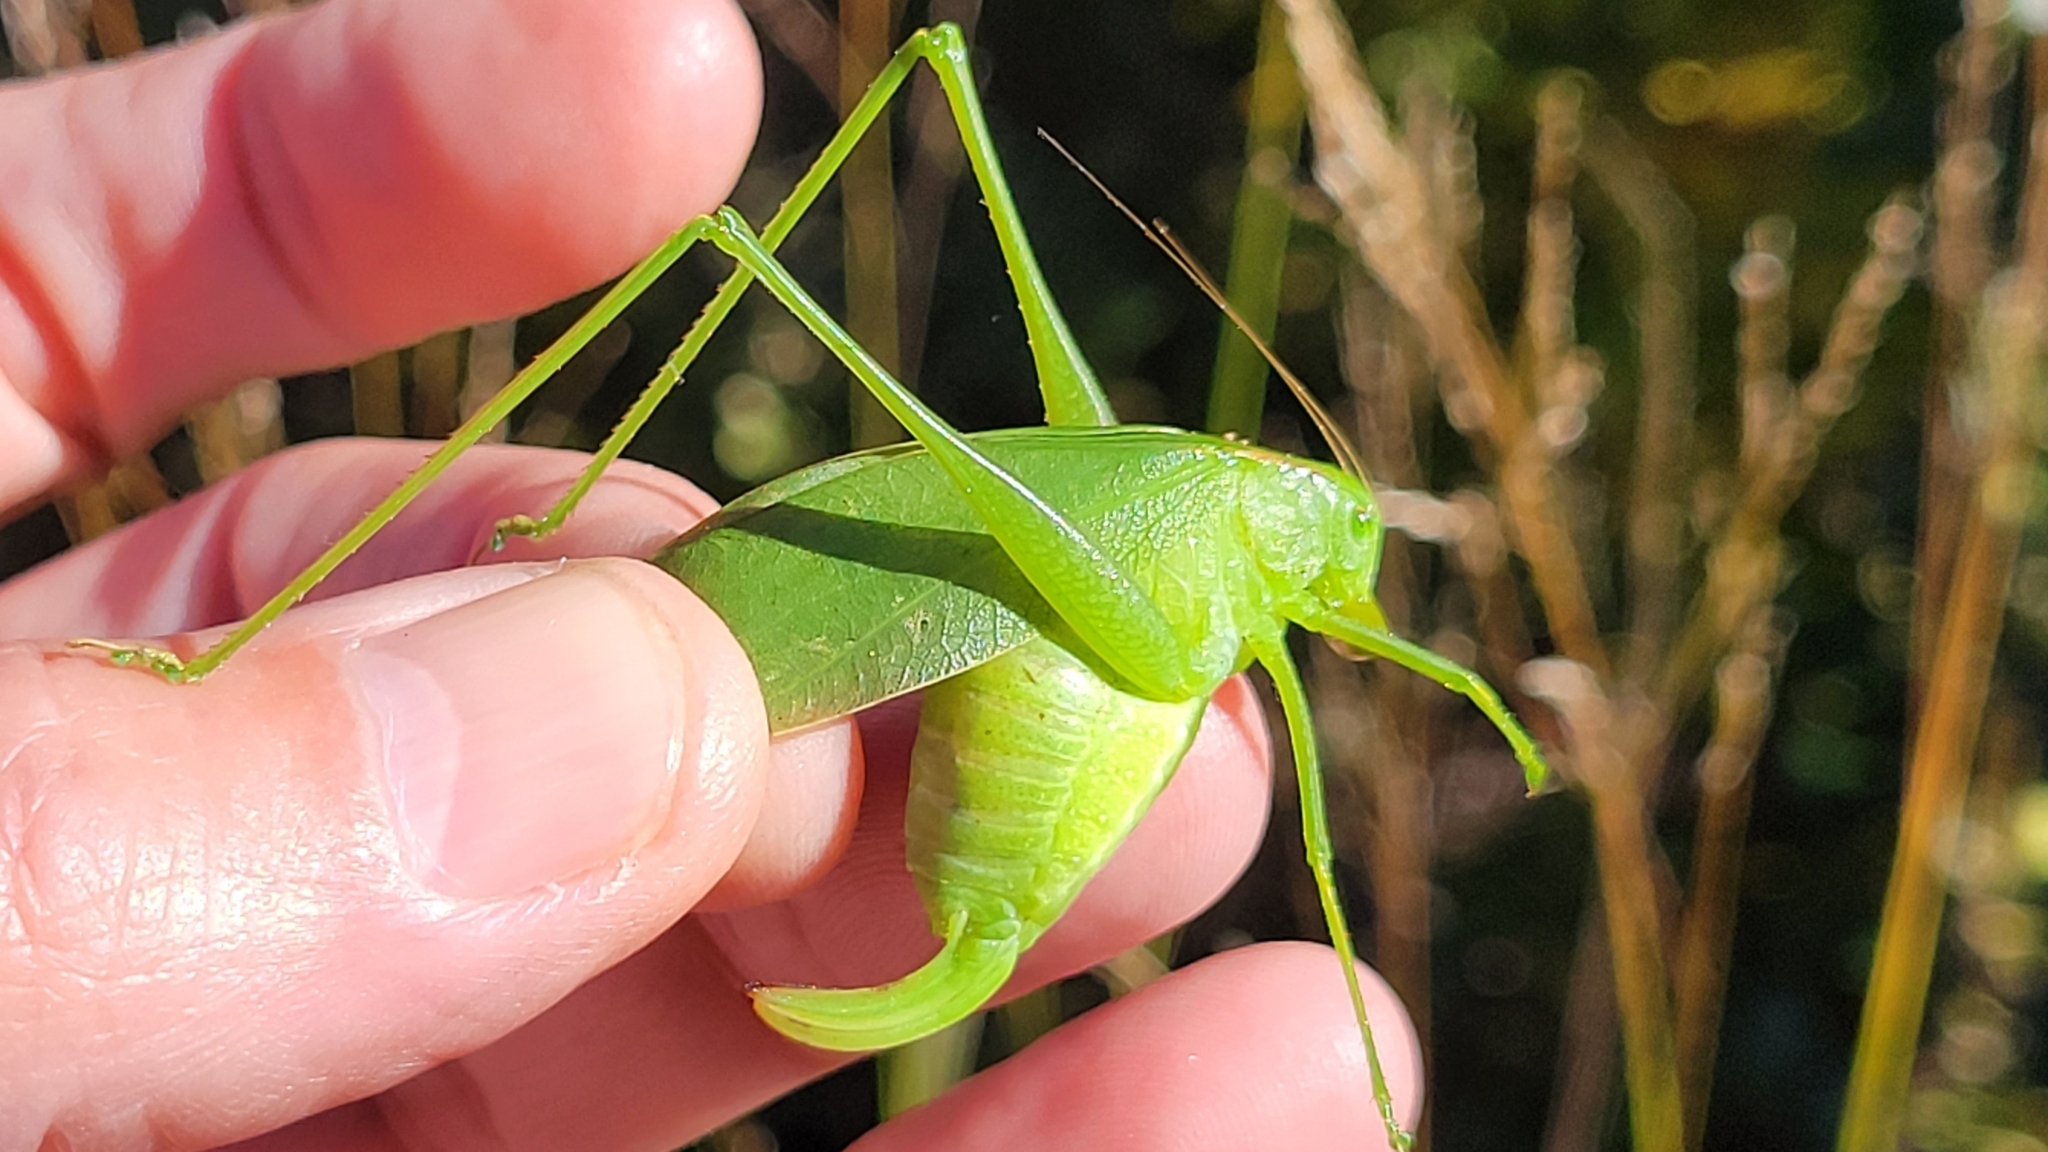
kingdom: Animalia
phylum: Arthropoda
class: Insecta
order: Orthoptera
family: Tettigoniidae
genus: Amblycorypha
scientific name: Amblycorypha rotundifolia
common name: Rattler round-winged katydid
